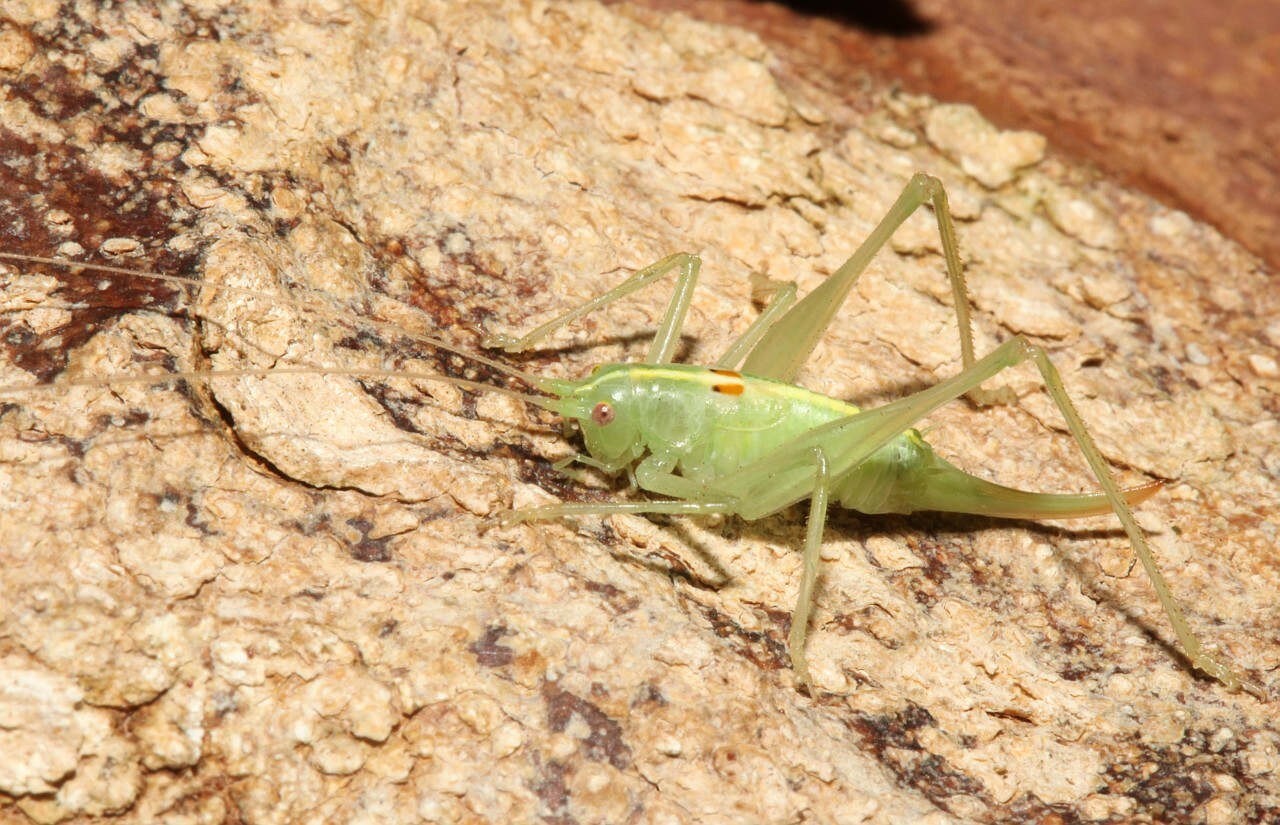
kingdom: Animalia
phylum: Arthropoda
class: Insecta
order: Orthoptera
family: Tettigoniidae
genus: Meconema
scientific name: Meconema meridionale
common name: Southern oak bush-cricket
